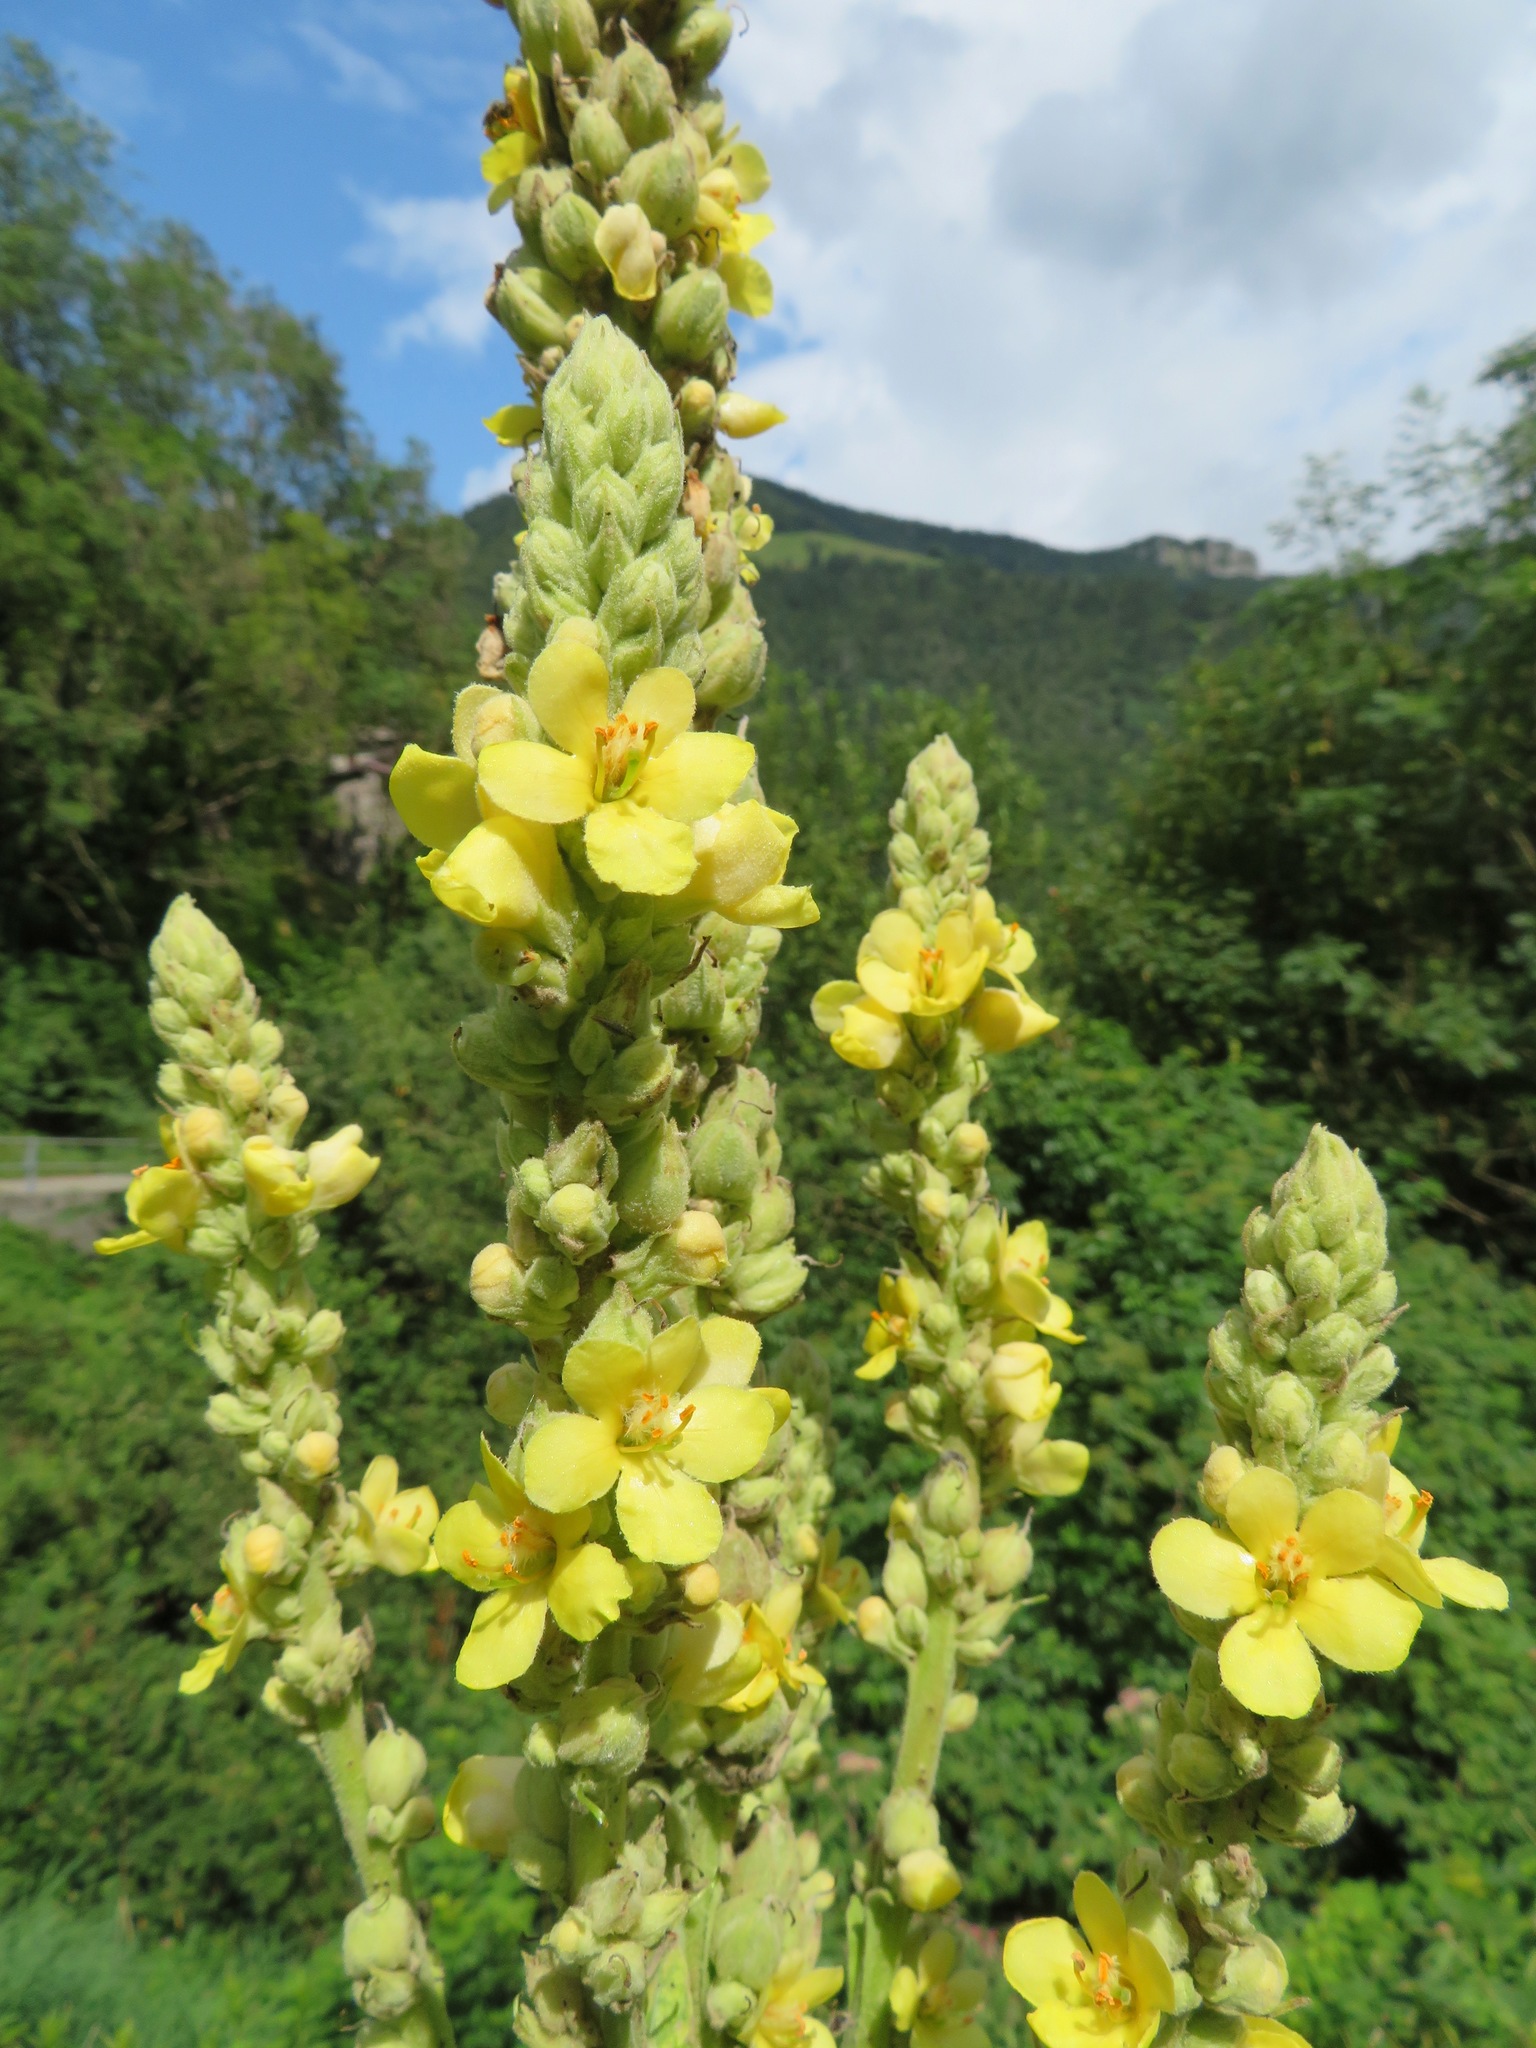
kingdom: Plantae
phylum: Tracheophyta
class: Magnoliopsida
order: Lamiales
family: Scrophulariaceae
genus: Verbascum
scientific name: Verbascum thapsus
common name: Common mullein
